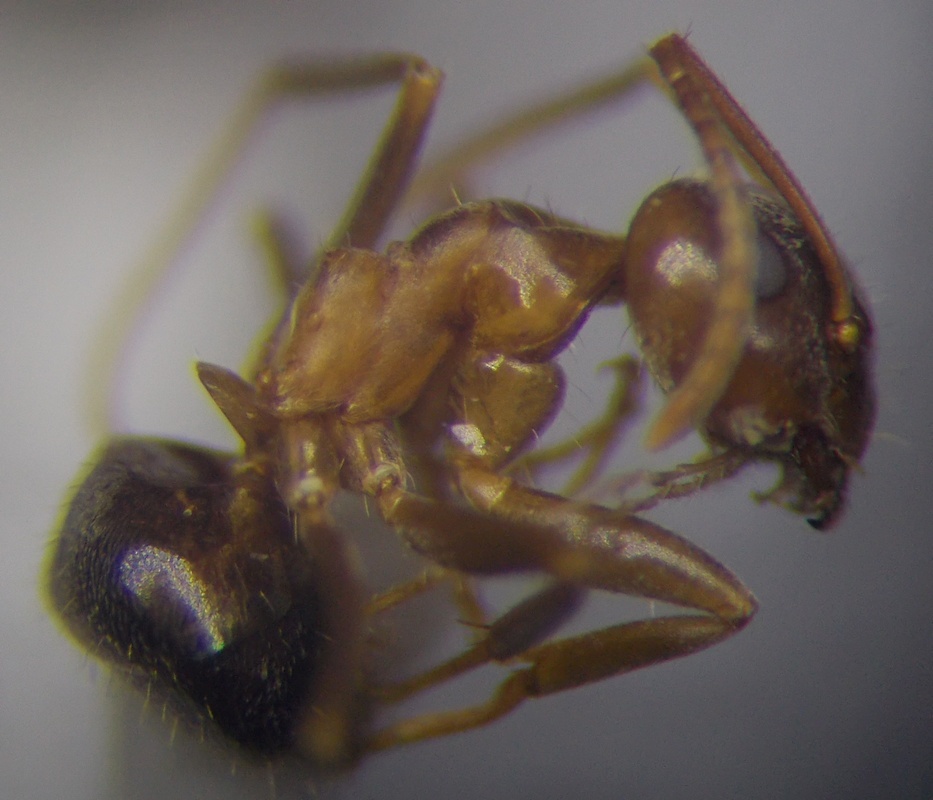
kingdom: Animalia
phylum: Arthropoda
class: Insecta
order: Hymenoptera
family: Formicidae
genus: Lasius
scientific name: Lasius brunneus
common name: Brown ant
